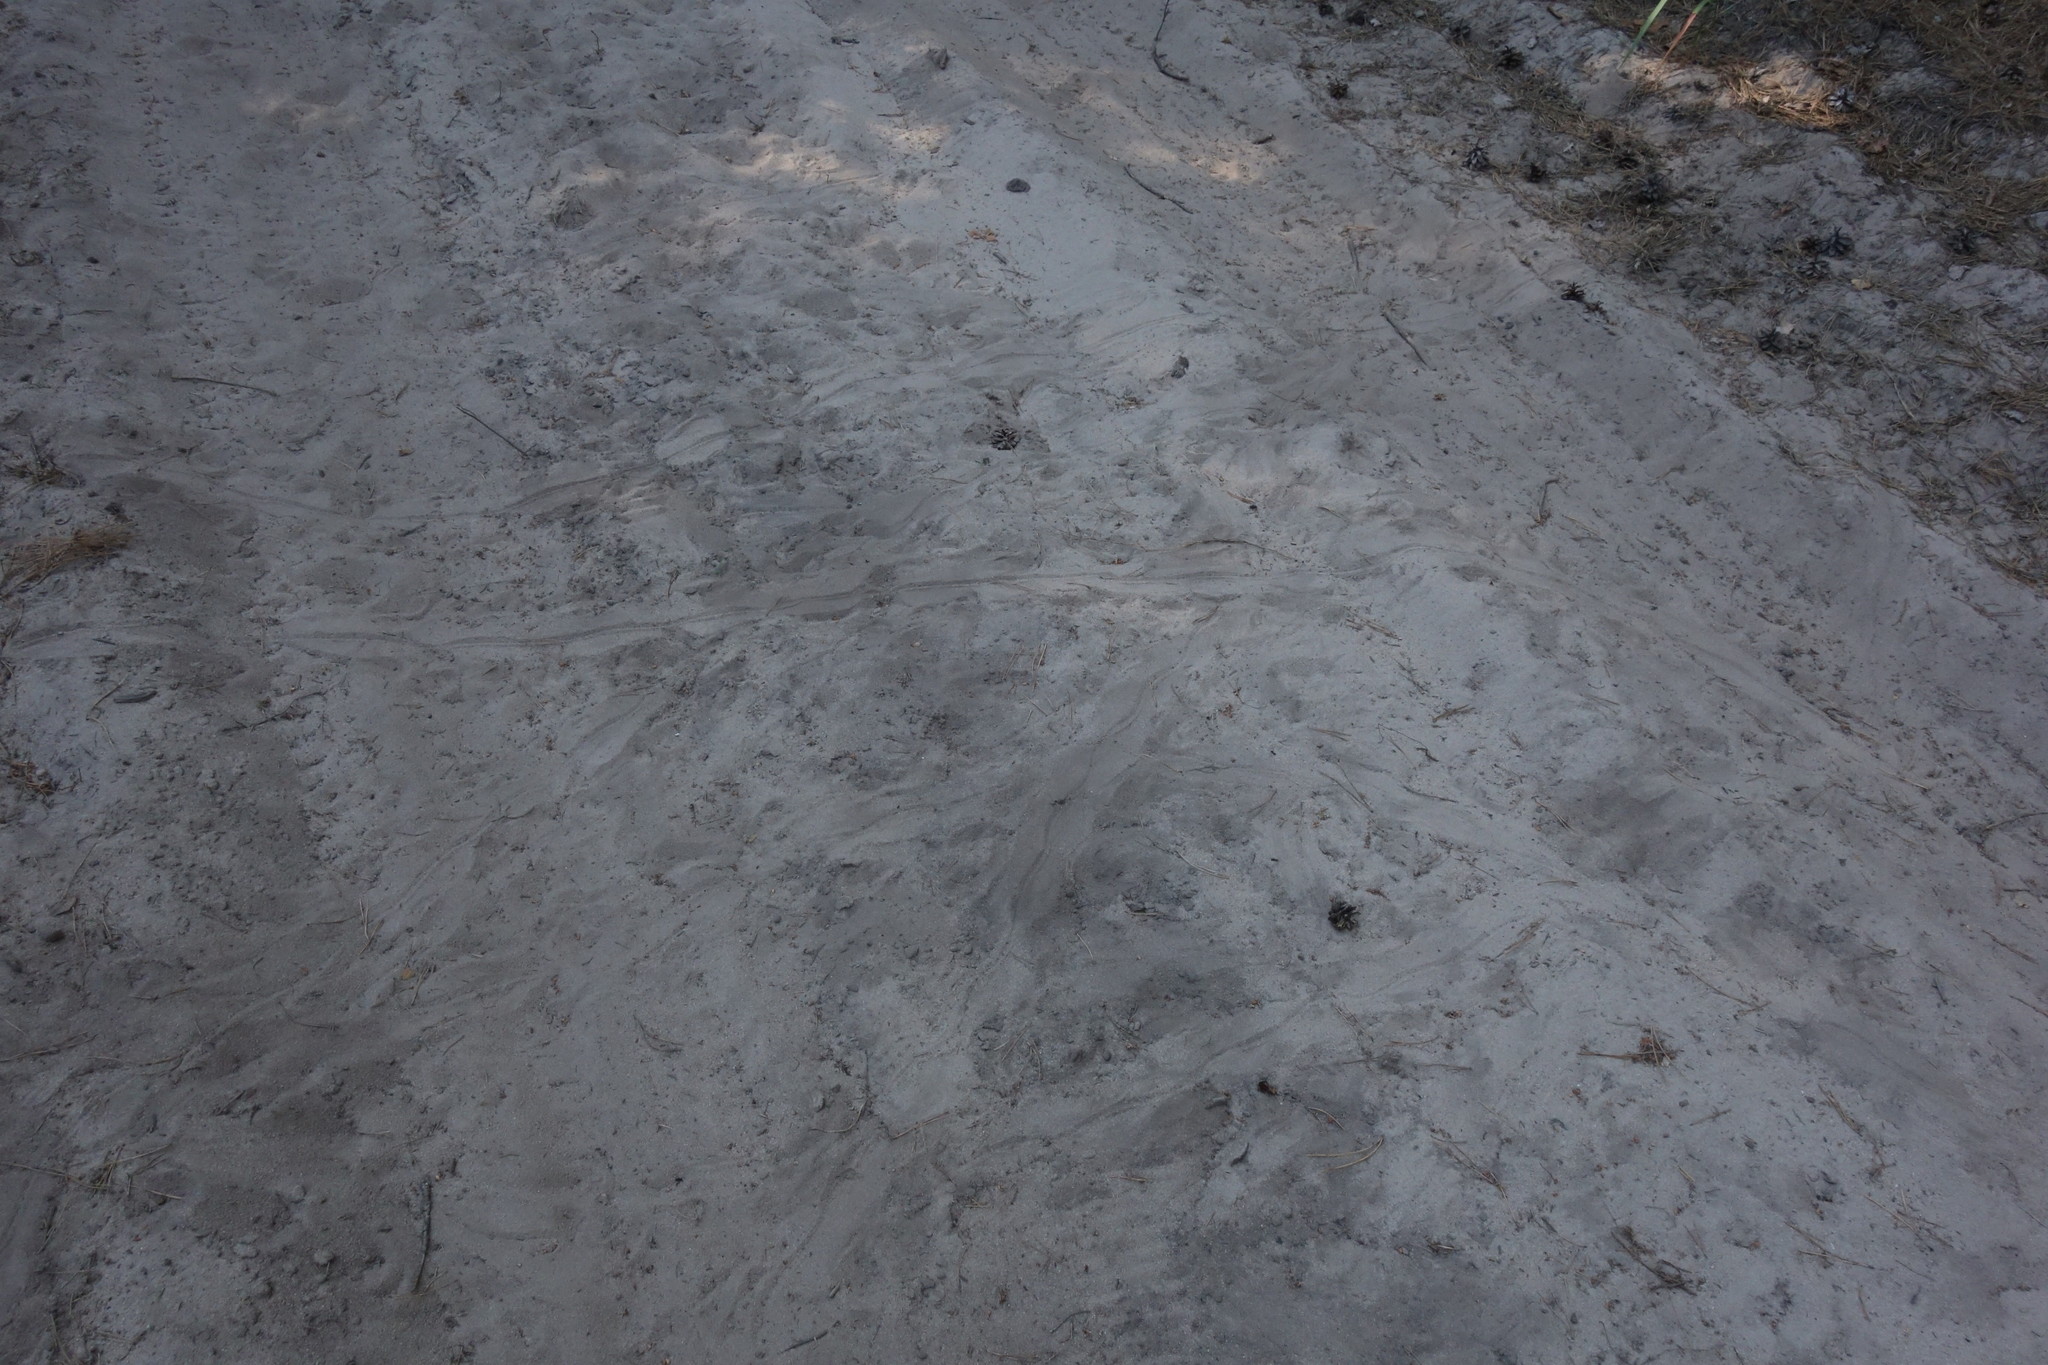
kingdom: Animalia
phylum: Chordata
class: Testudines
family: Emydidae
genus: Emys
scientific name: Emys orbicularis
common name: European pond turtle
